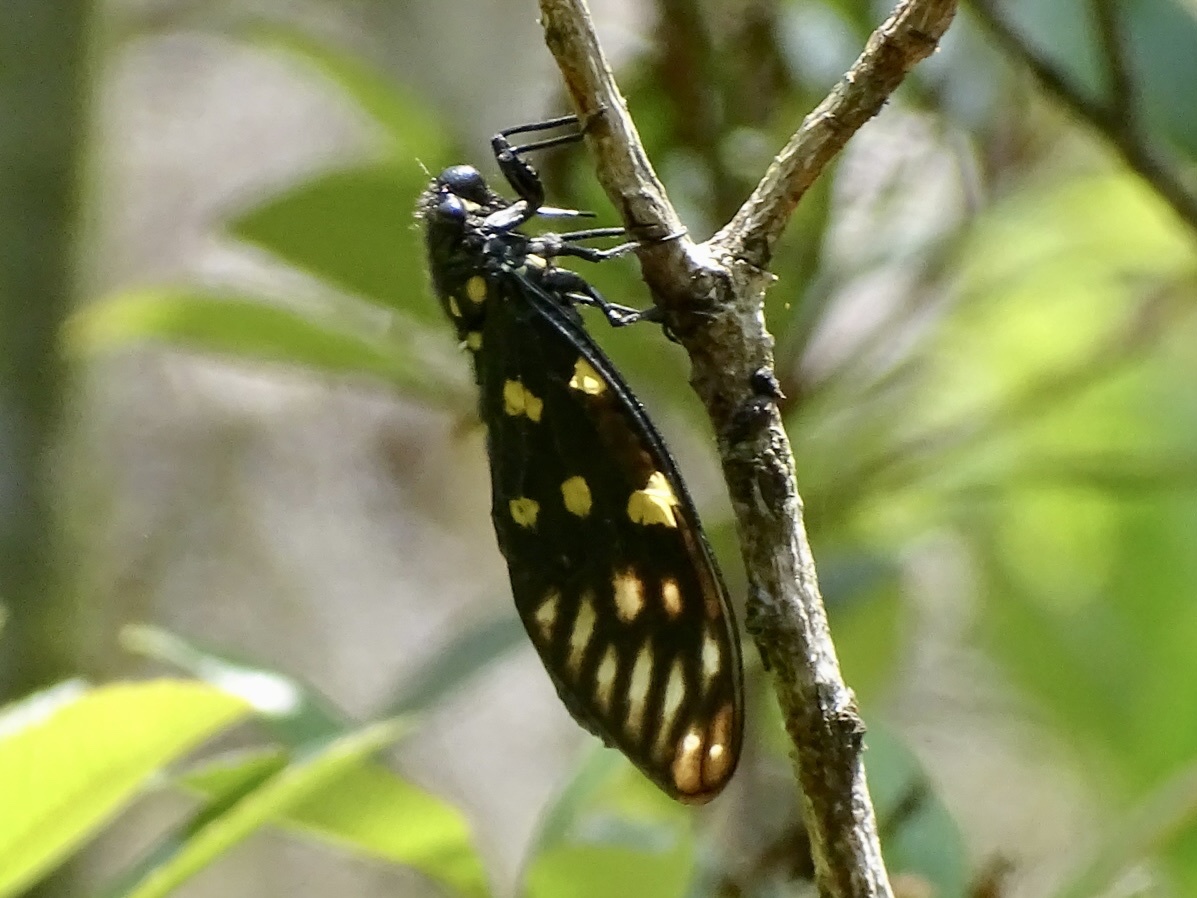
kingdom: Animalia
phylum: Arthropoda
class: Insecta
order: Hemiptera
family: Cicadidae
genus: Gaeana
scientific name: Gaeana maculata
